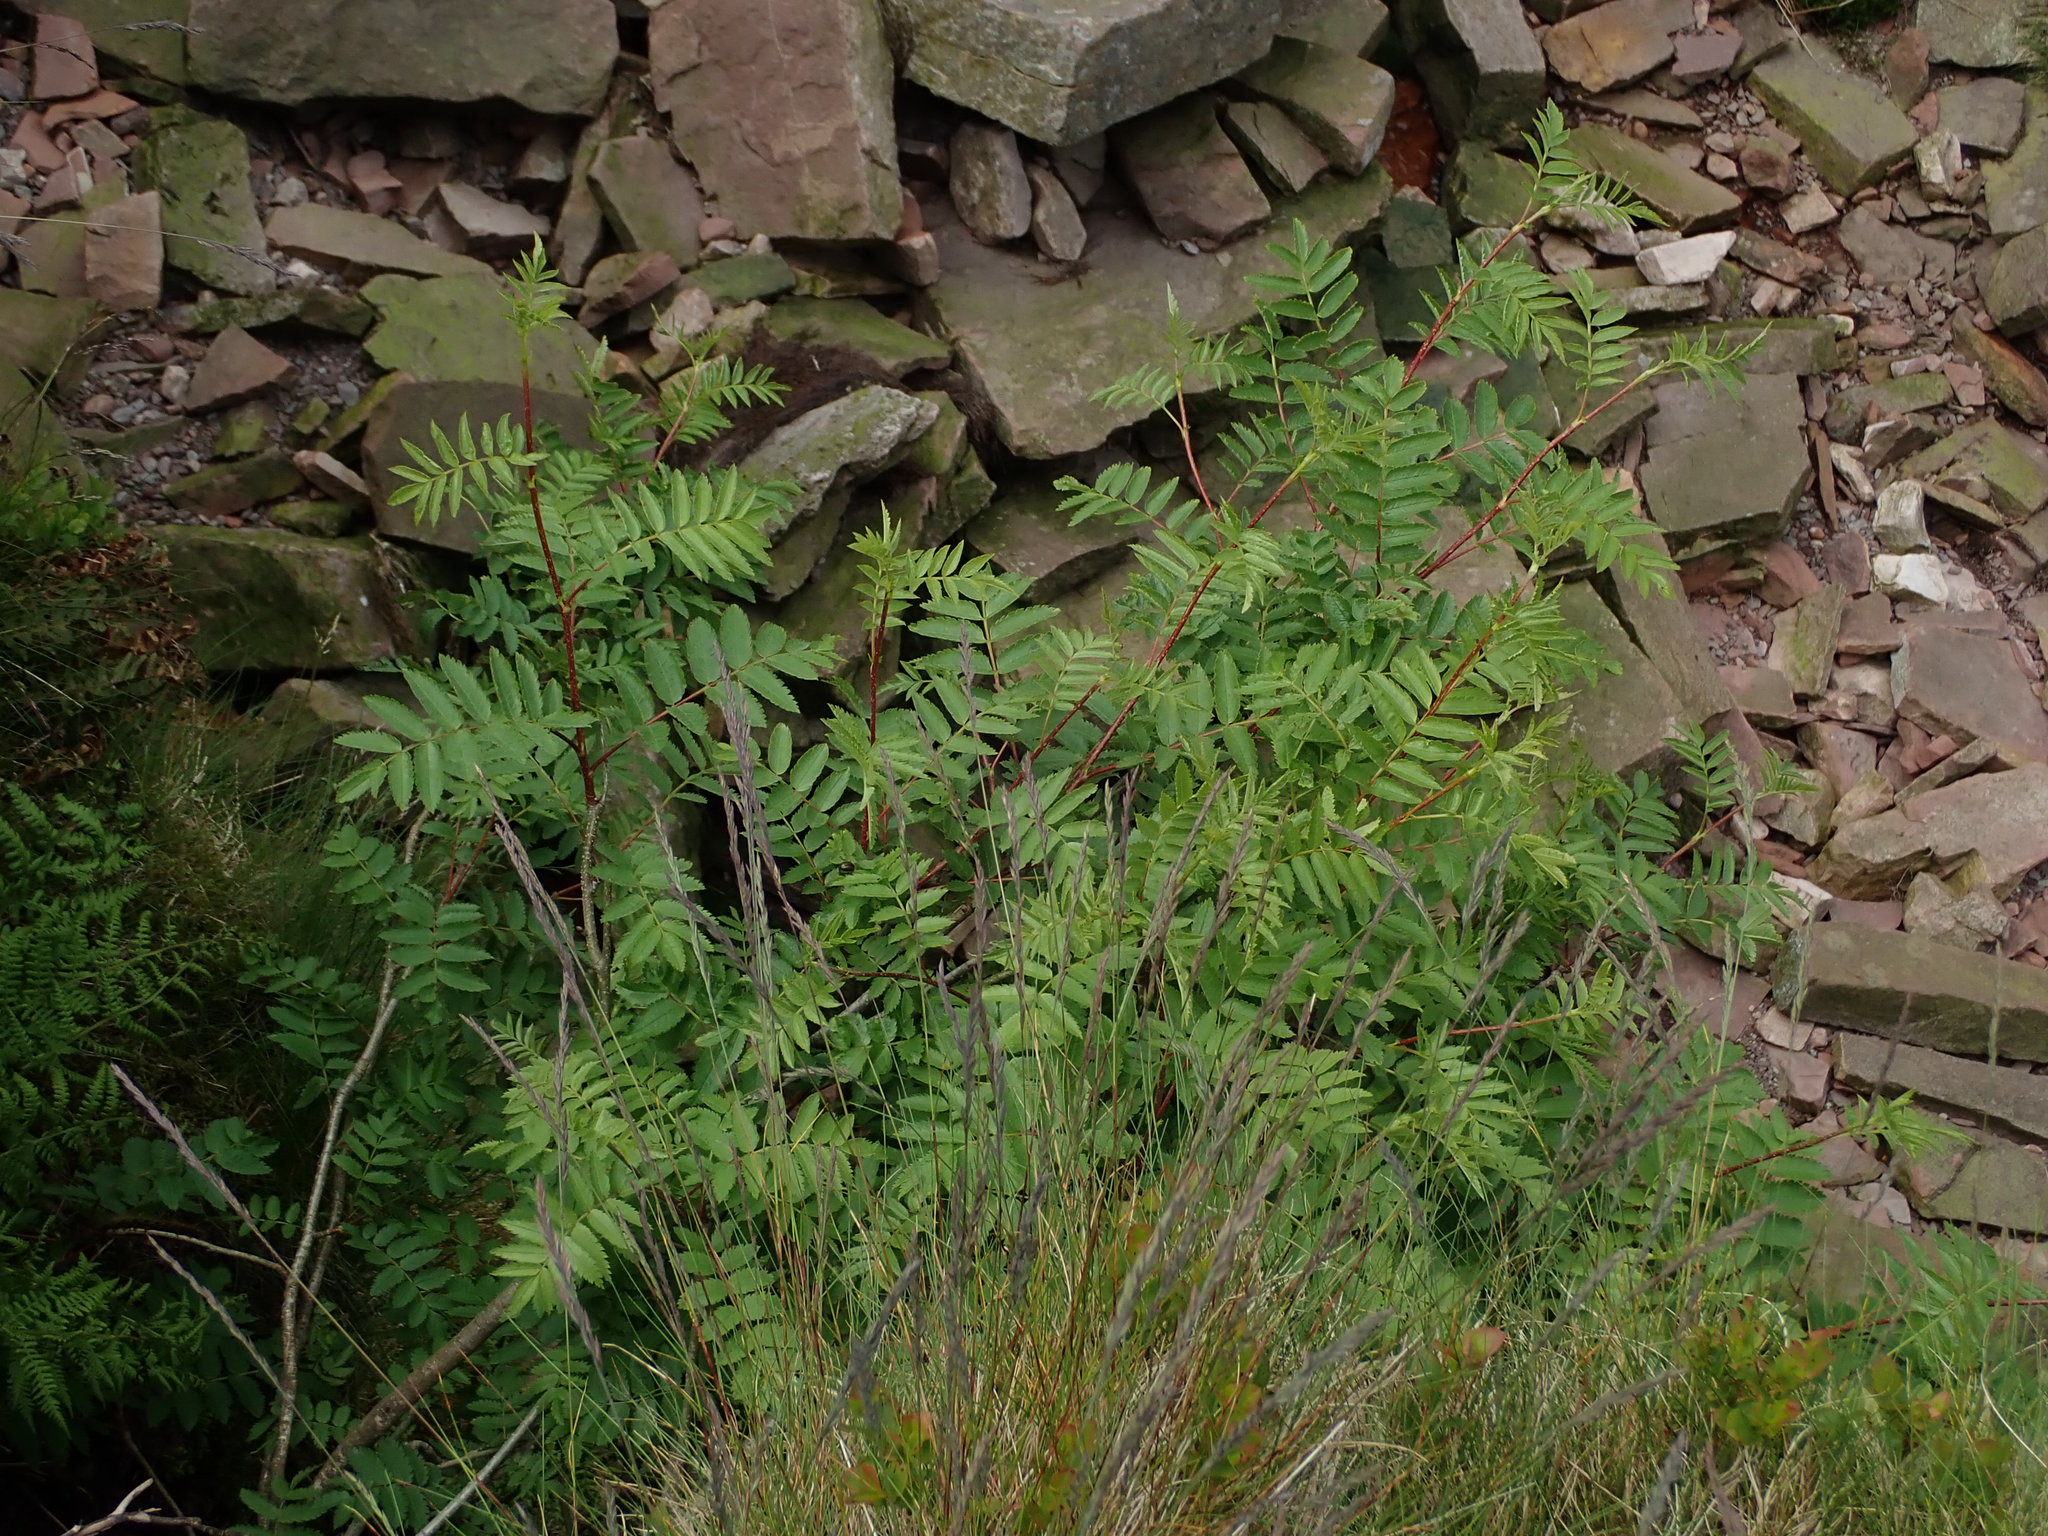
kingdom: Plantae
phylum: Tracheophyta
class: Magnoliopsida
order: Rosales
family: Rosaceae
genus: Sorbus
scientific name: Sorbus aucuparia
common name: Rowan
